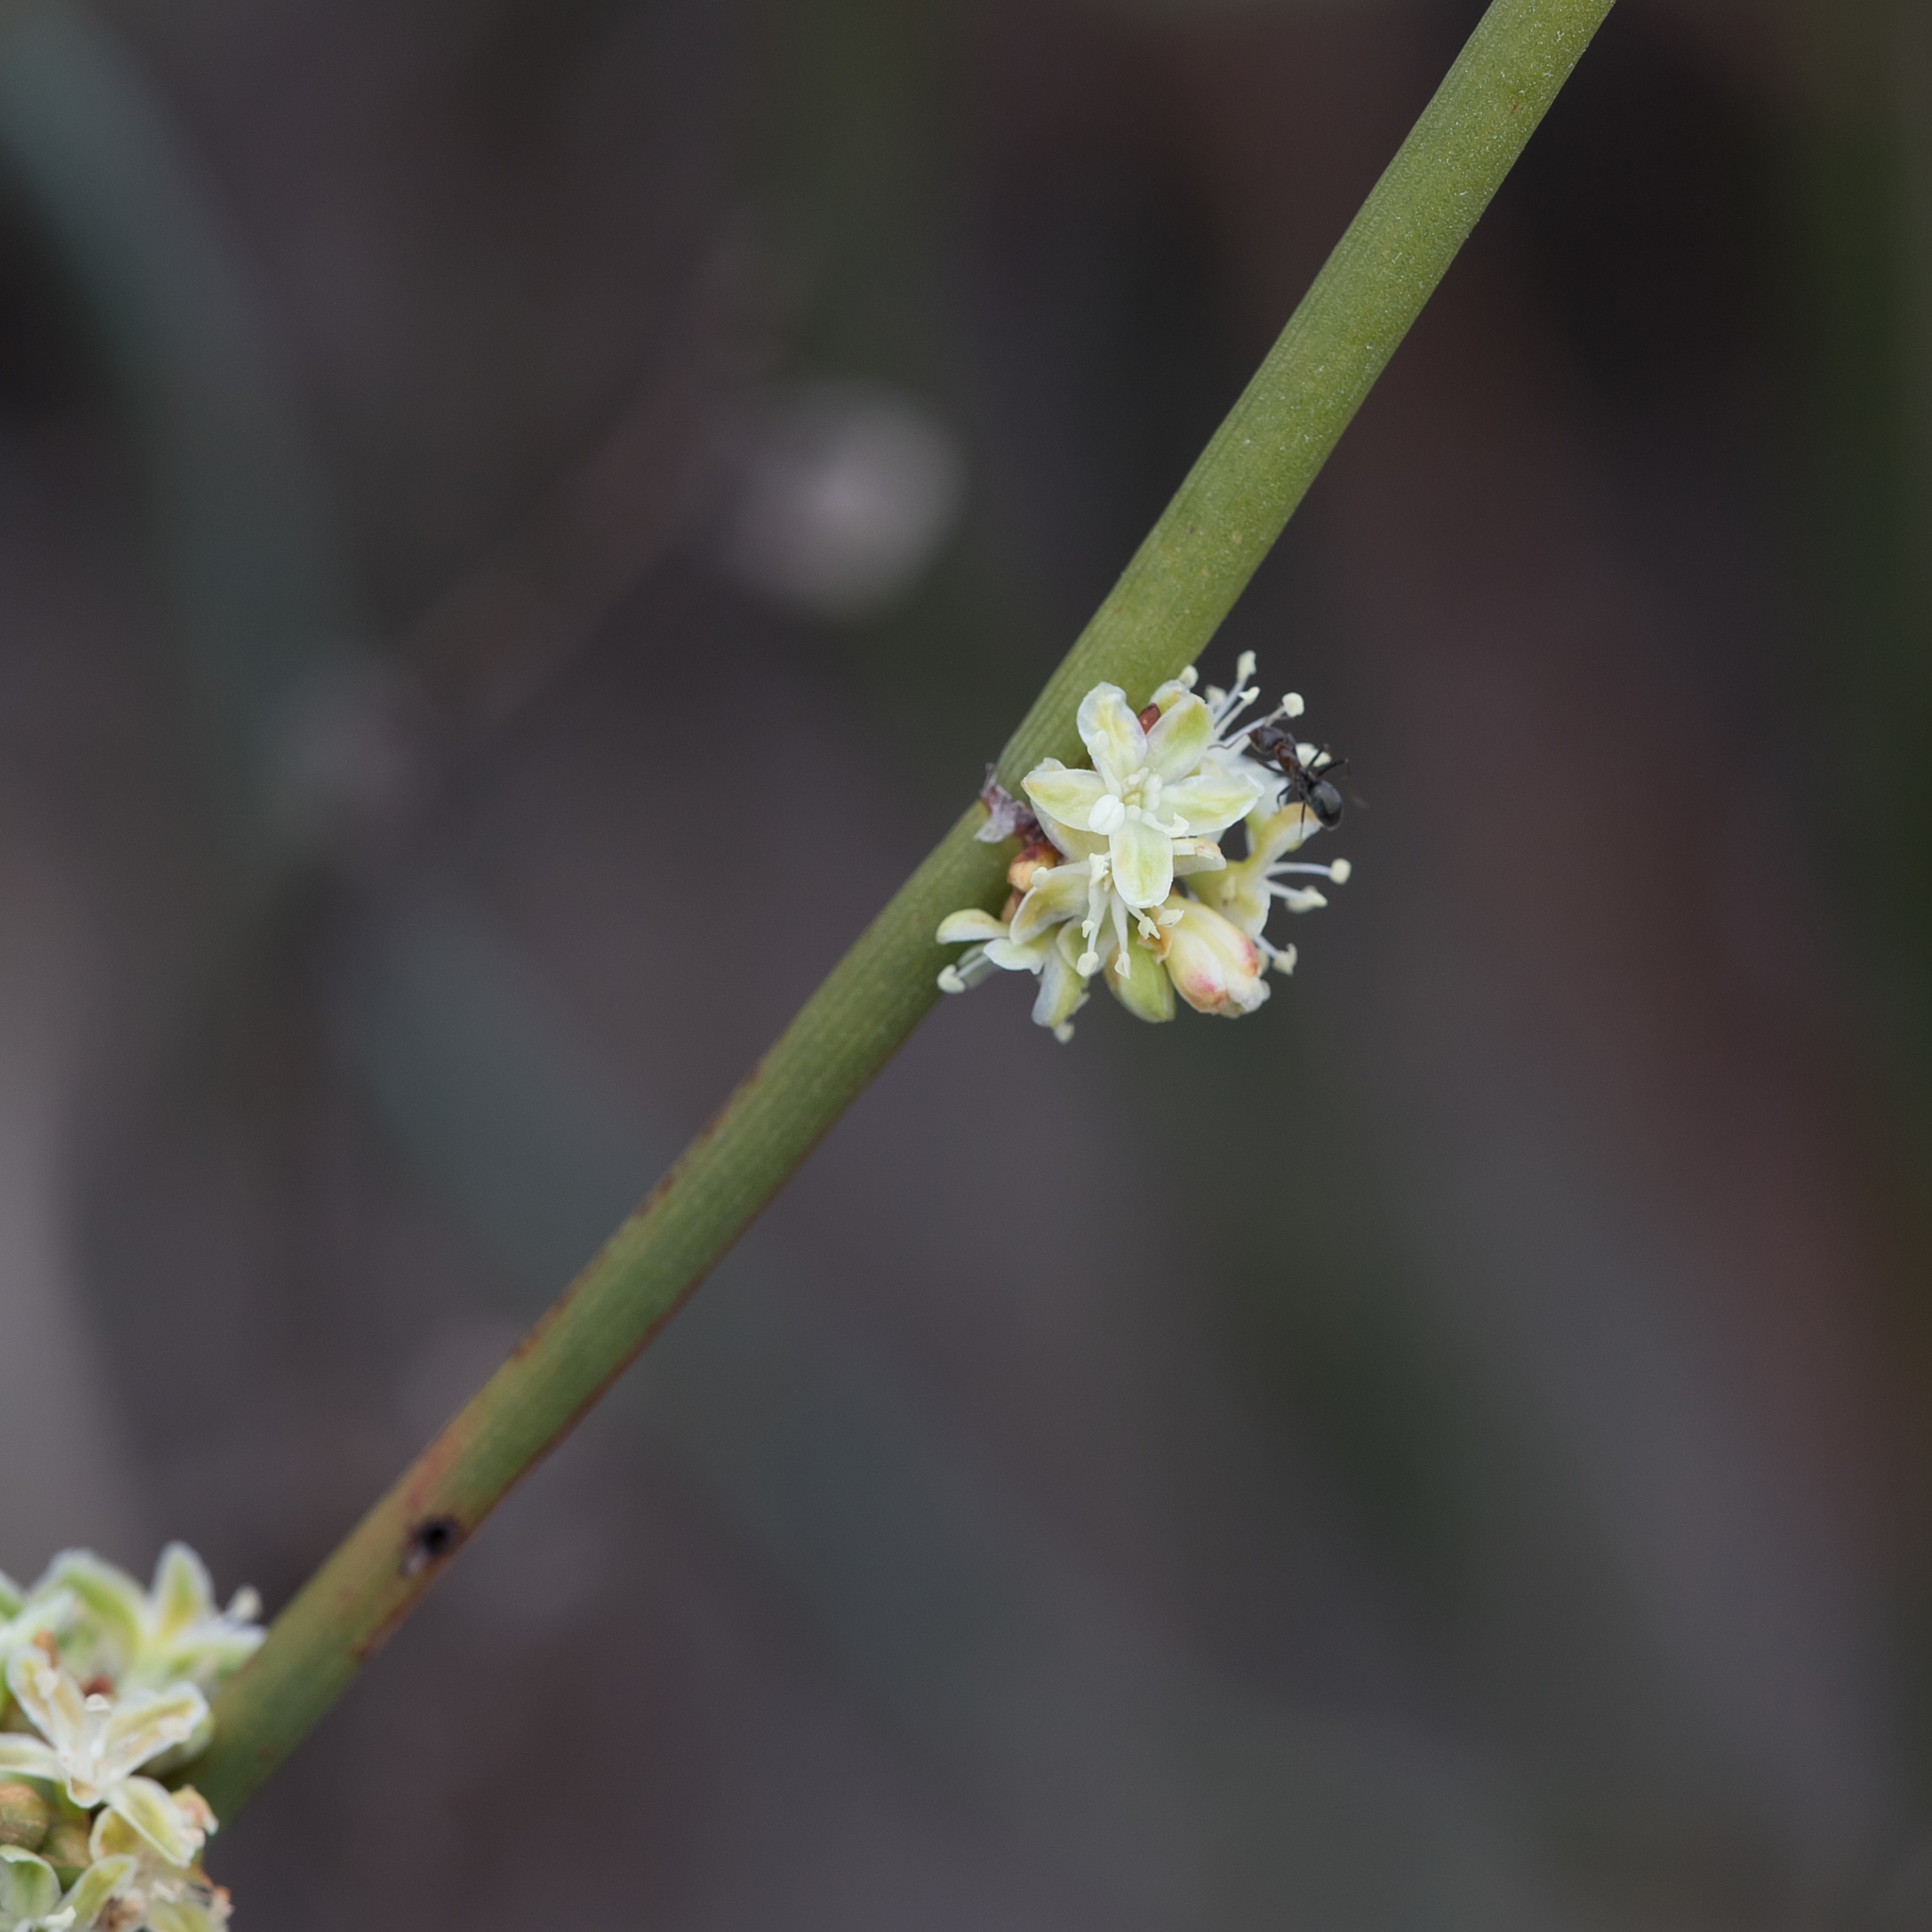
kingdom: Plantae
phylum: Tracheophyta
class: Magnoliopsida
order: Caryophyllales
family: Polygonaceae
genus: Duma
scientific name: Duma florulenta
